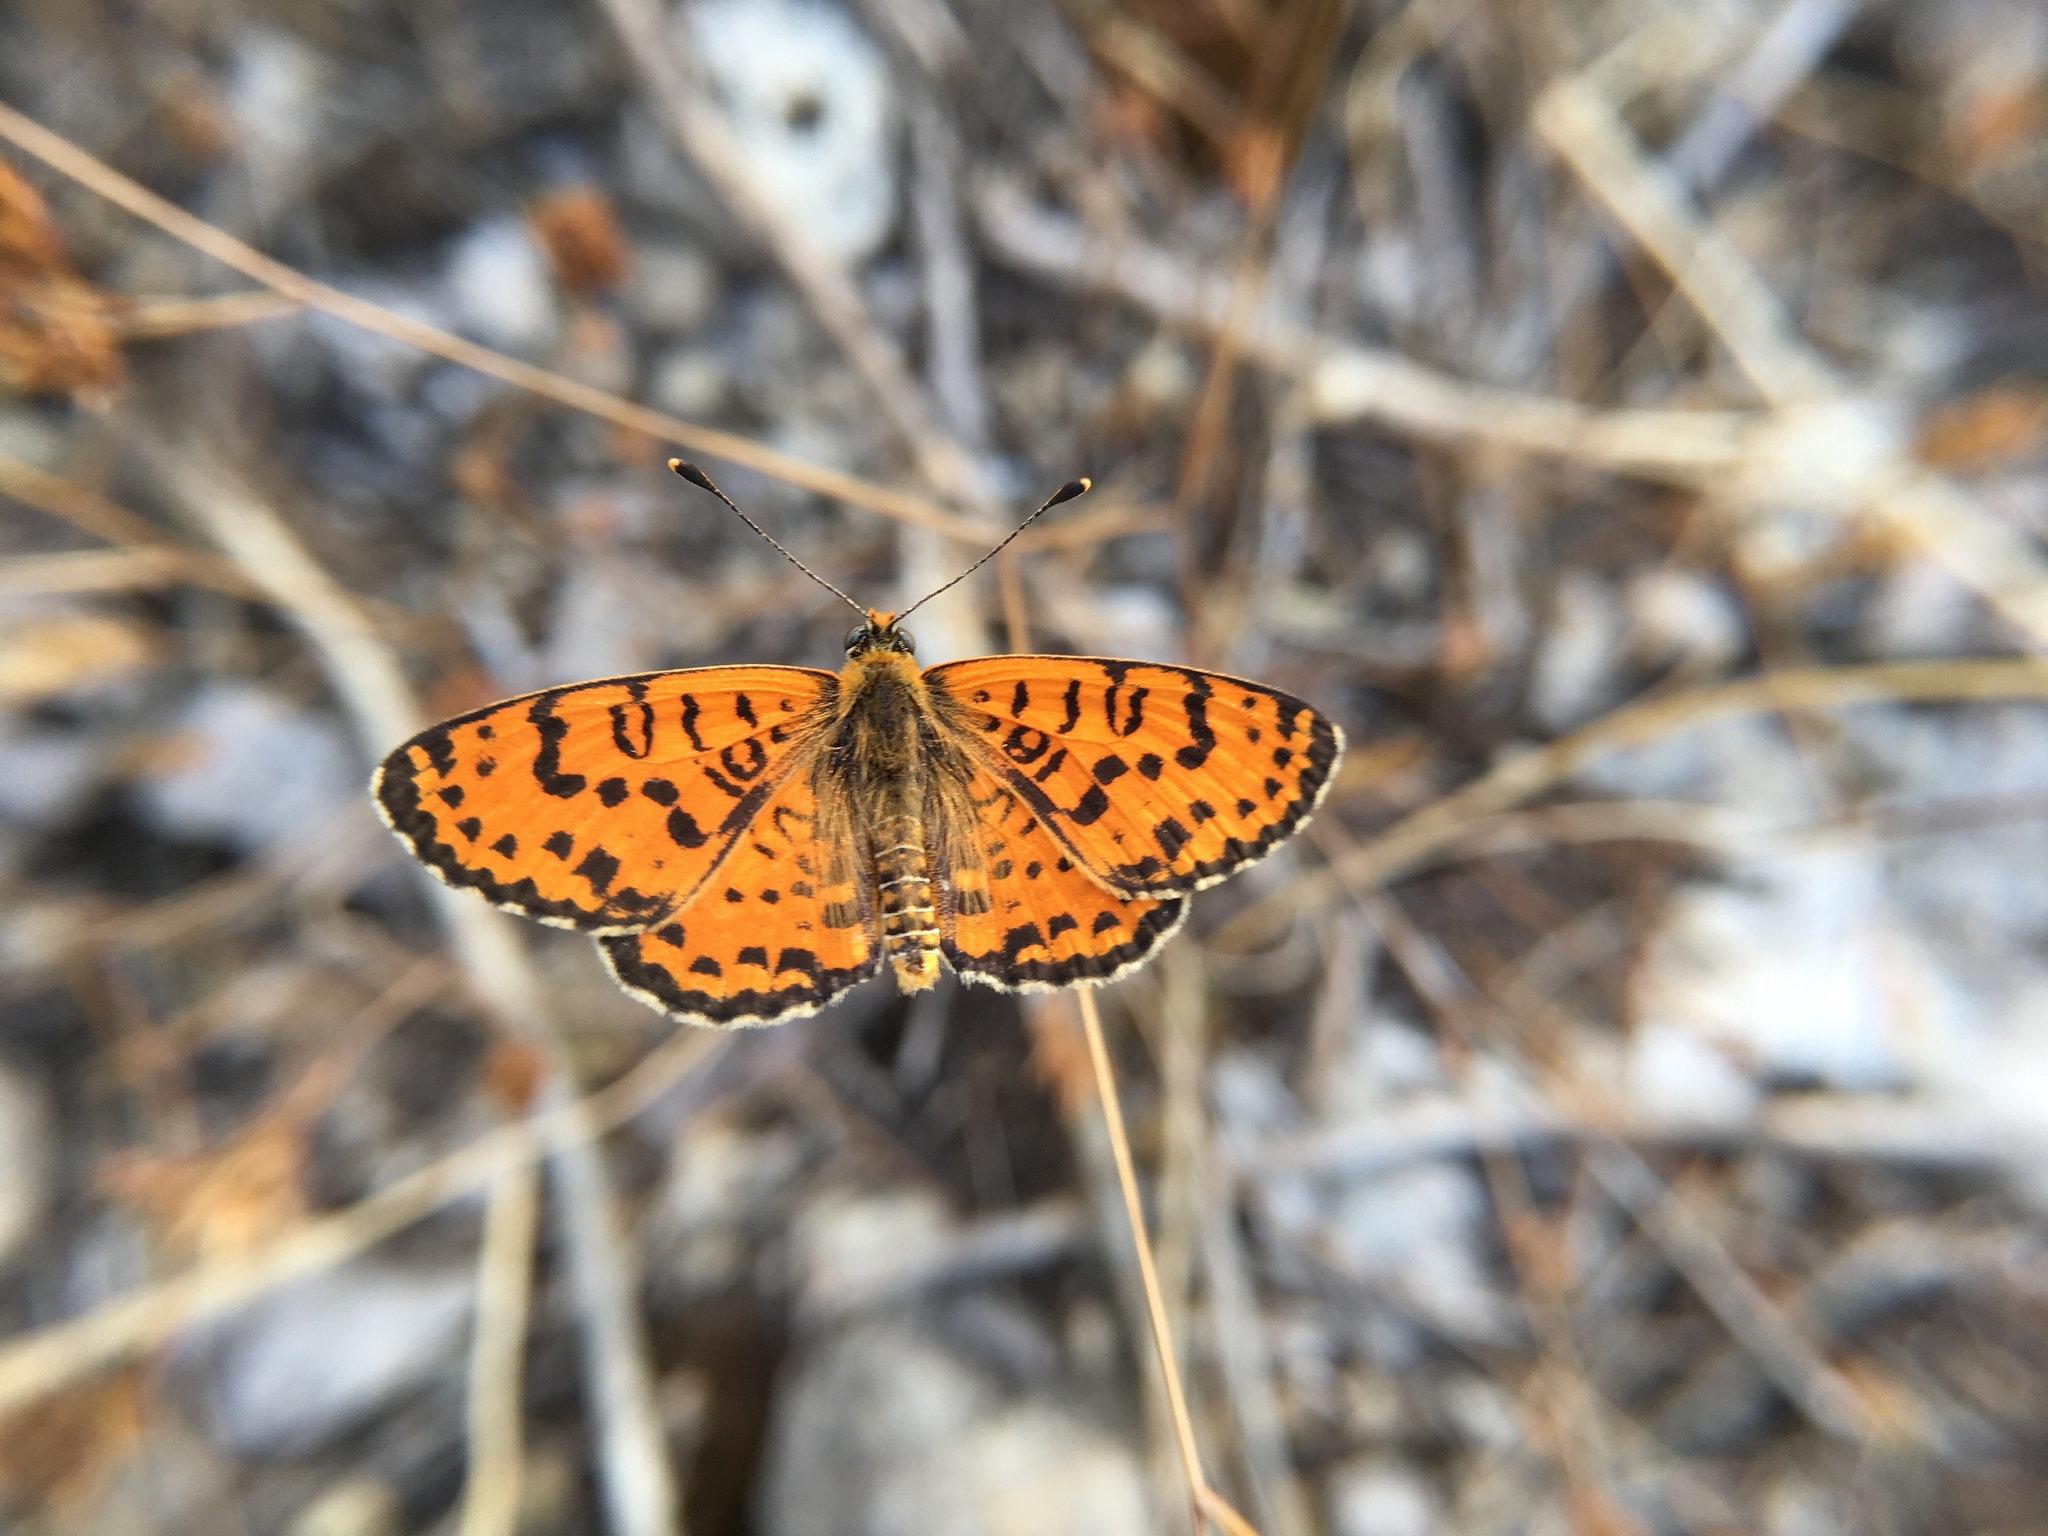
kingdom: Animalia
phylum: Arthropoda
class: Insecta
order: Lepidoptera
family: Nymphalidae
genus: Melitaea
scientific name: Melitaea didyma
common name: Spotted fritillary
